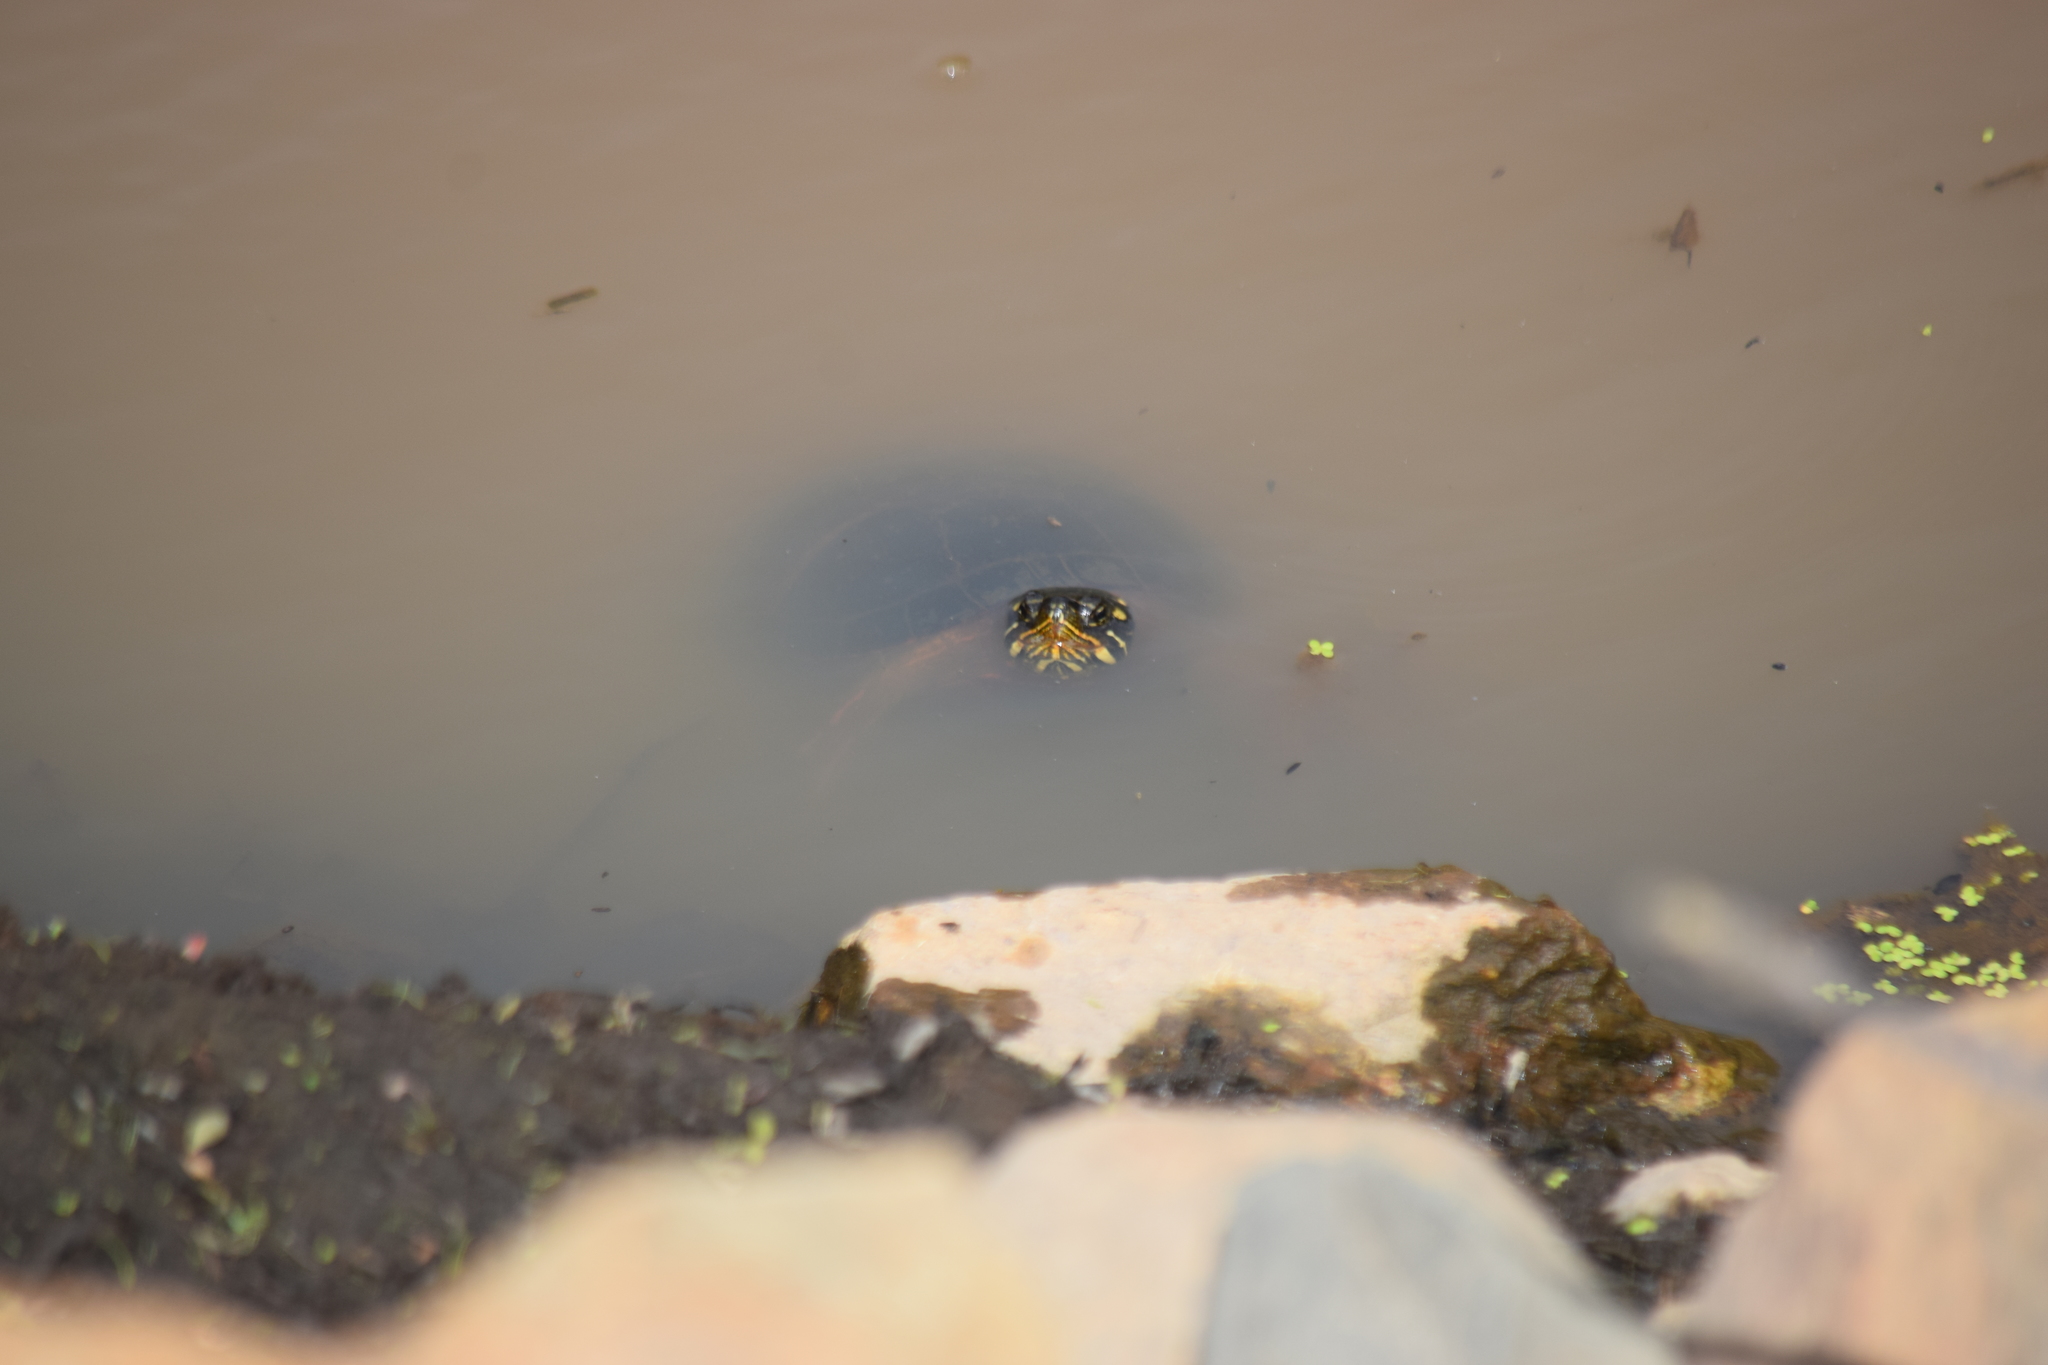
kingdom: Animalia
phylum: Chordata
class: Testudines
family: Emydidae
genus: Chrysemys
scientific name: Chrysemys picta
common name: Painted turtle
